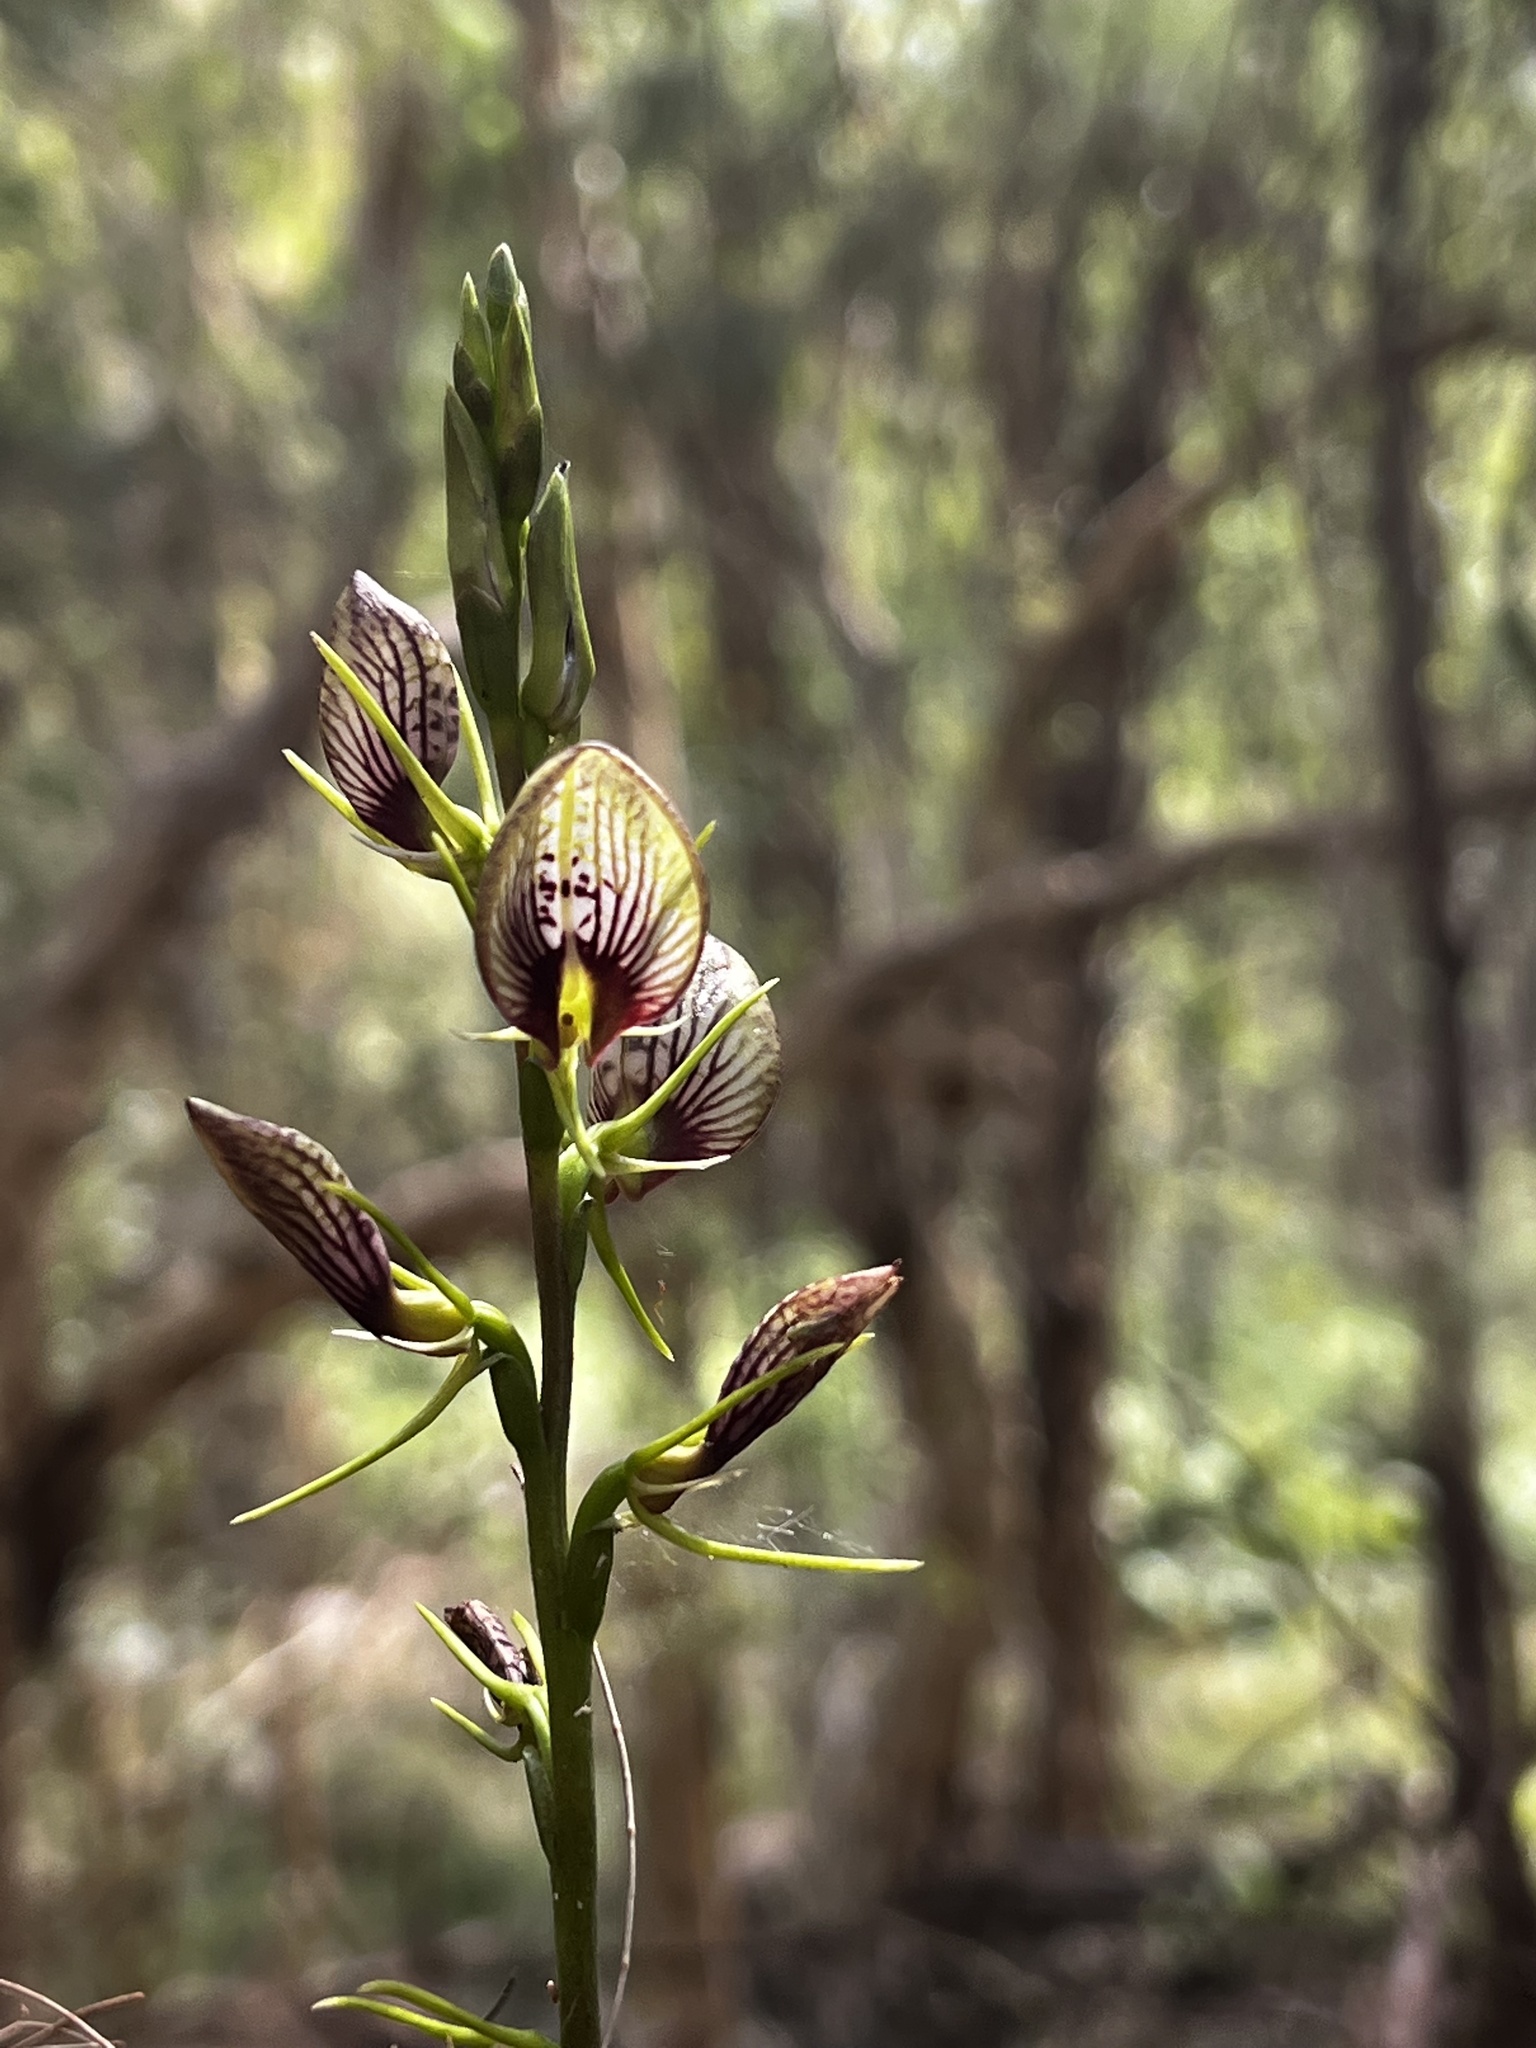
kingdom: Plantae
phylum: Tracheophyta
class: Liliopsida
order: Asparagales
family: Orchidaceae
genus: Cryptostylis
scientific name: Cryptostylis erecta
